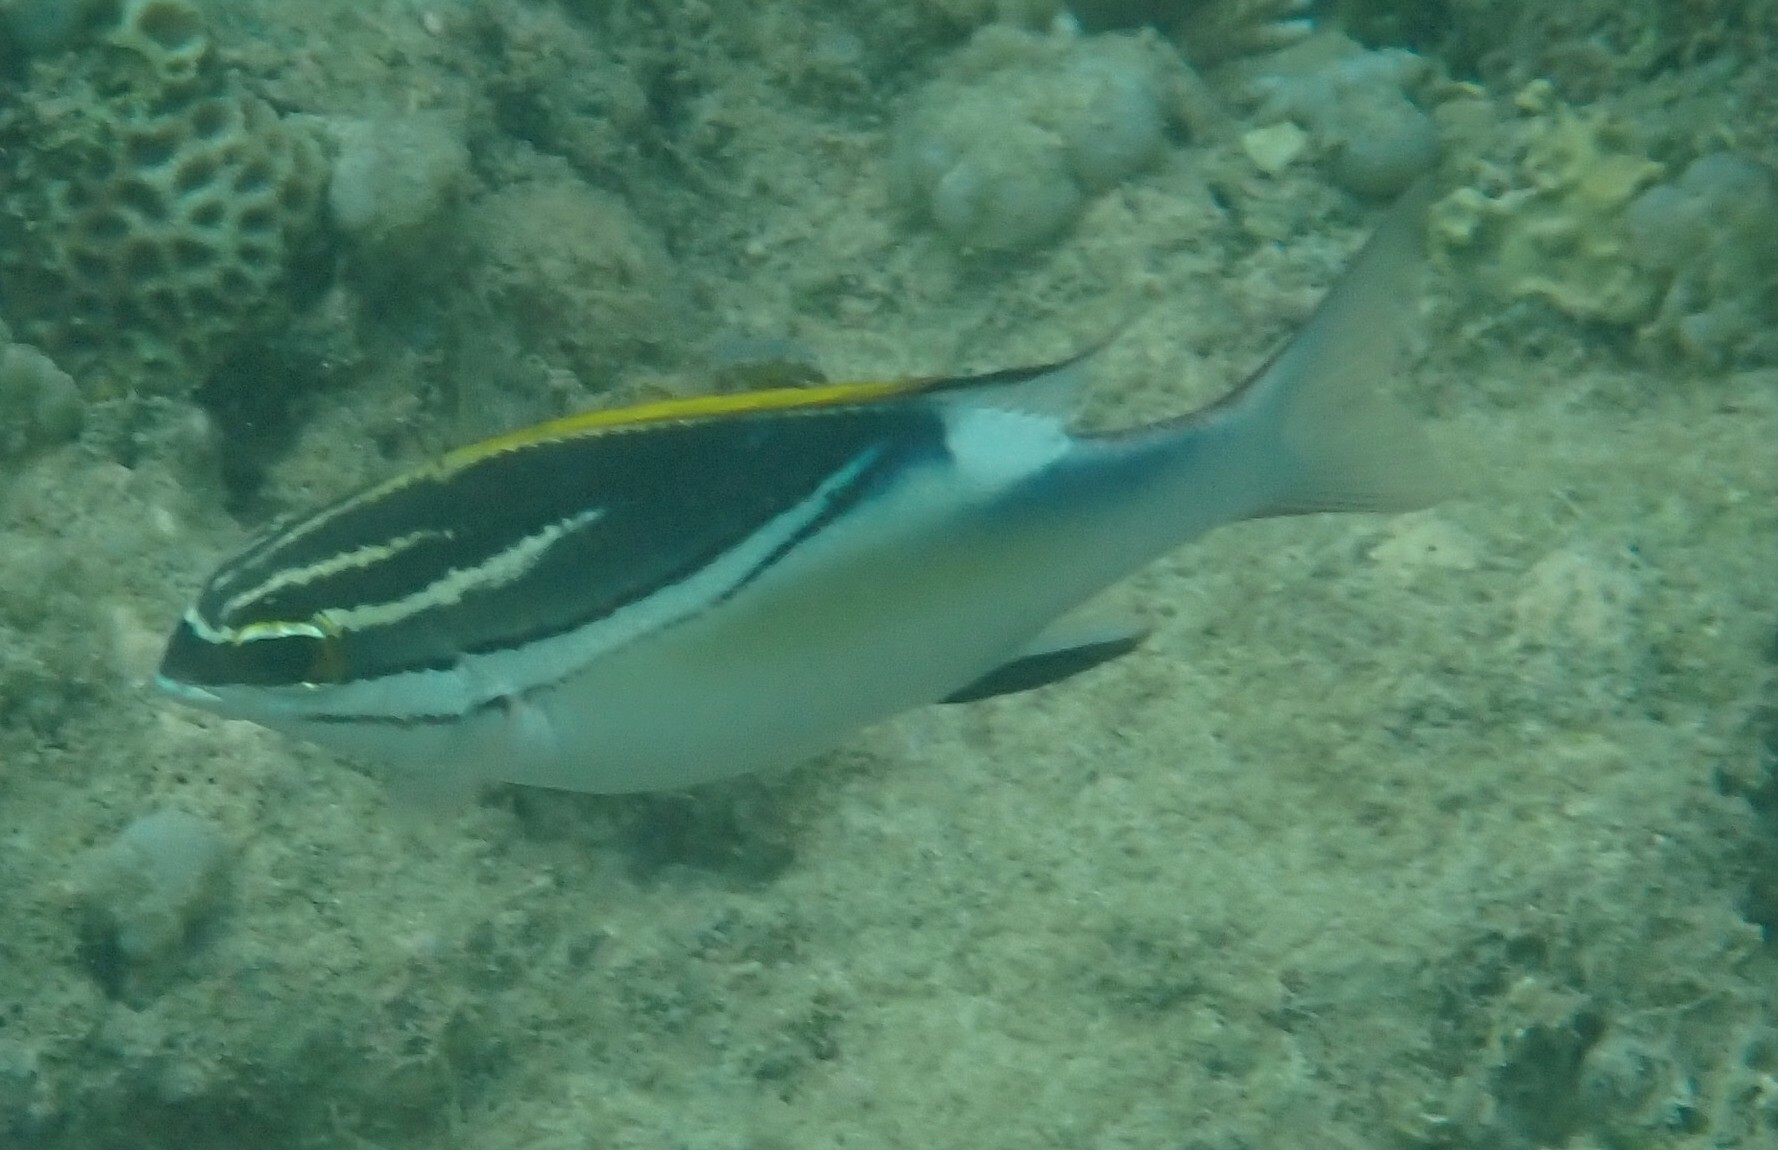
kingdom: Animalia
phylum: Chordata
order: Perciformes
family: Nemipteridae
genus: Scolopsis
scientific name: Scolopsis bilineata
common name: Two-lined monocle bream
